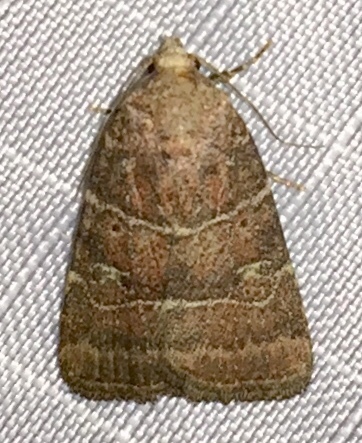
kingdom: Animalia
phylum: Arthropoda
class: Insecta
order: Lepidoptera
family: Noctuidae
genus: Elaphria
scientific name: Elaphria grata
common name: Grateful midget moth
